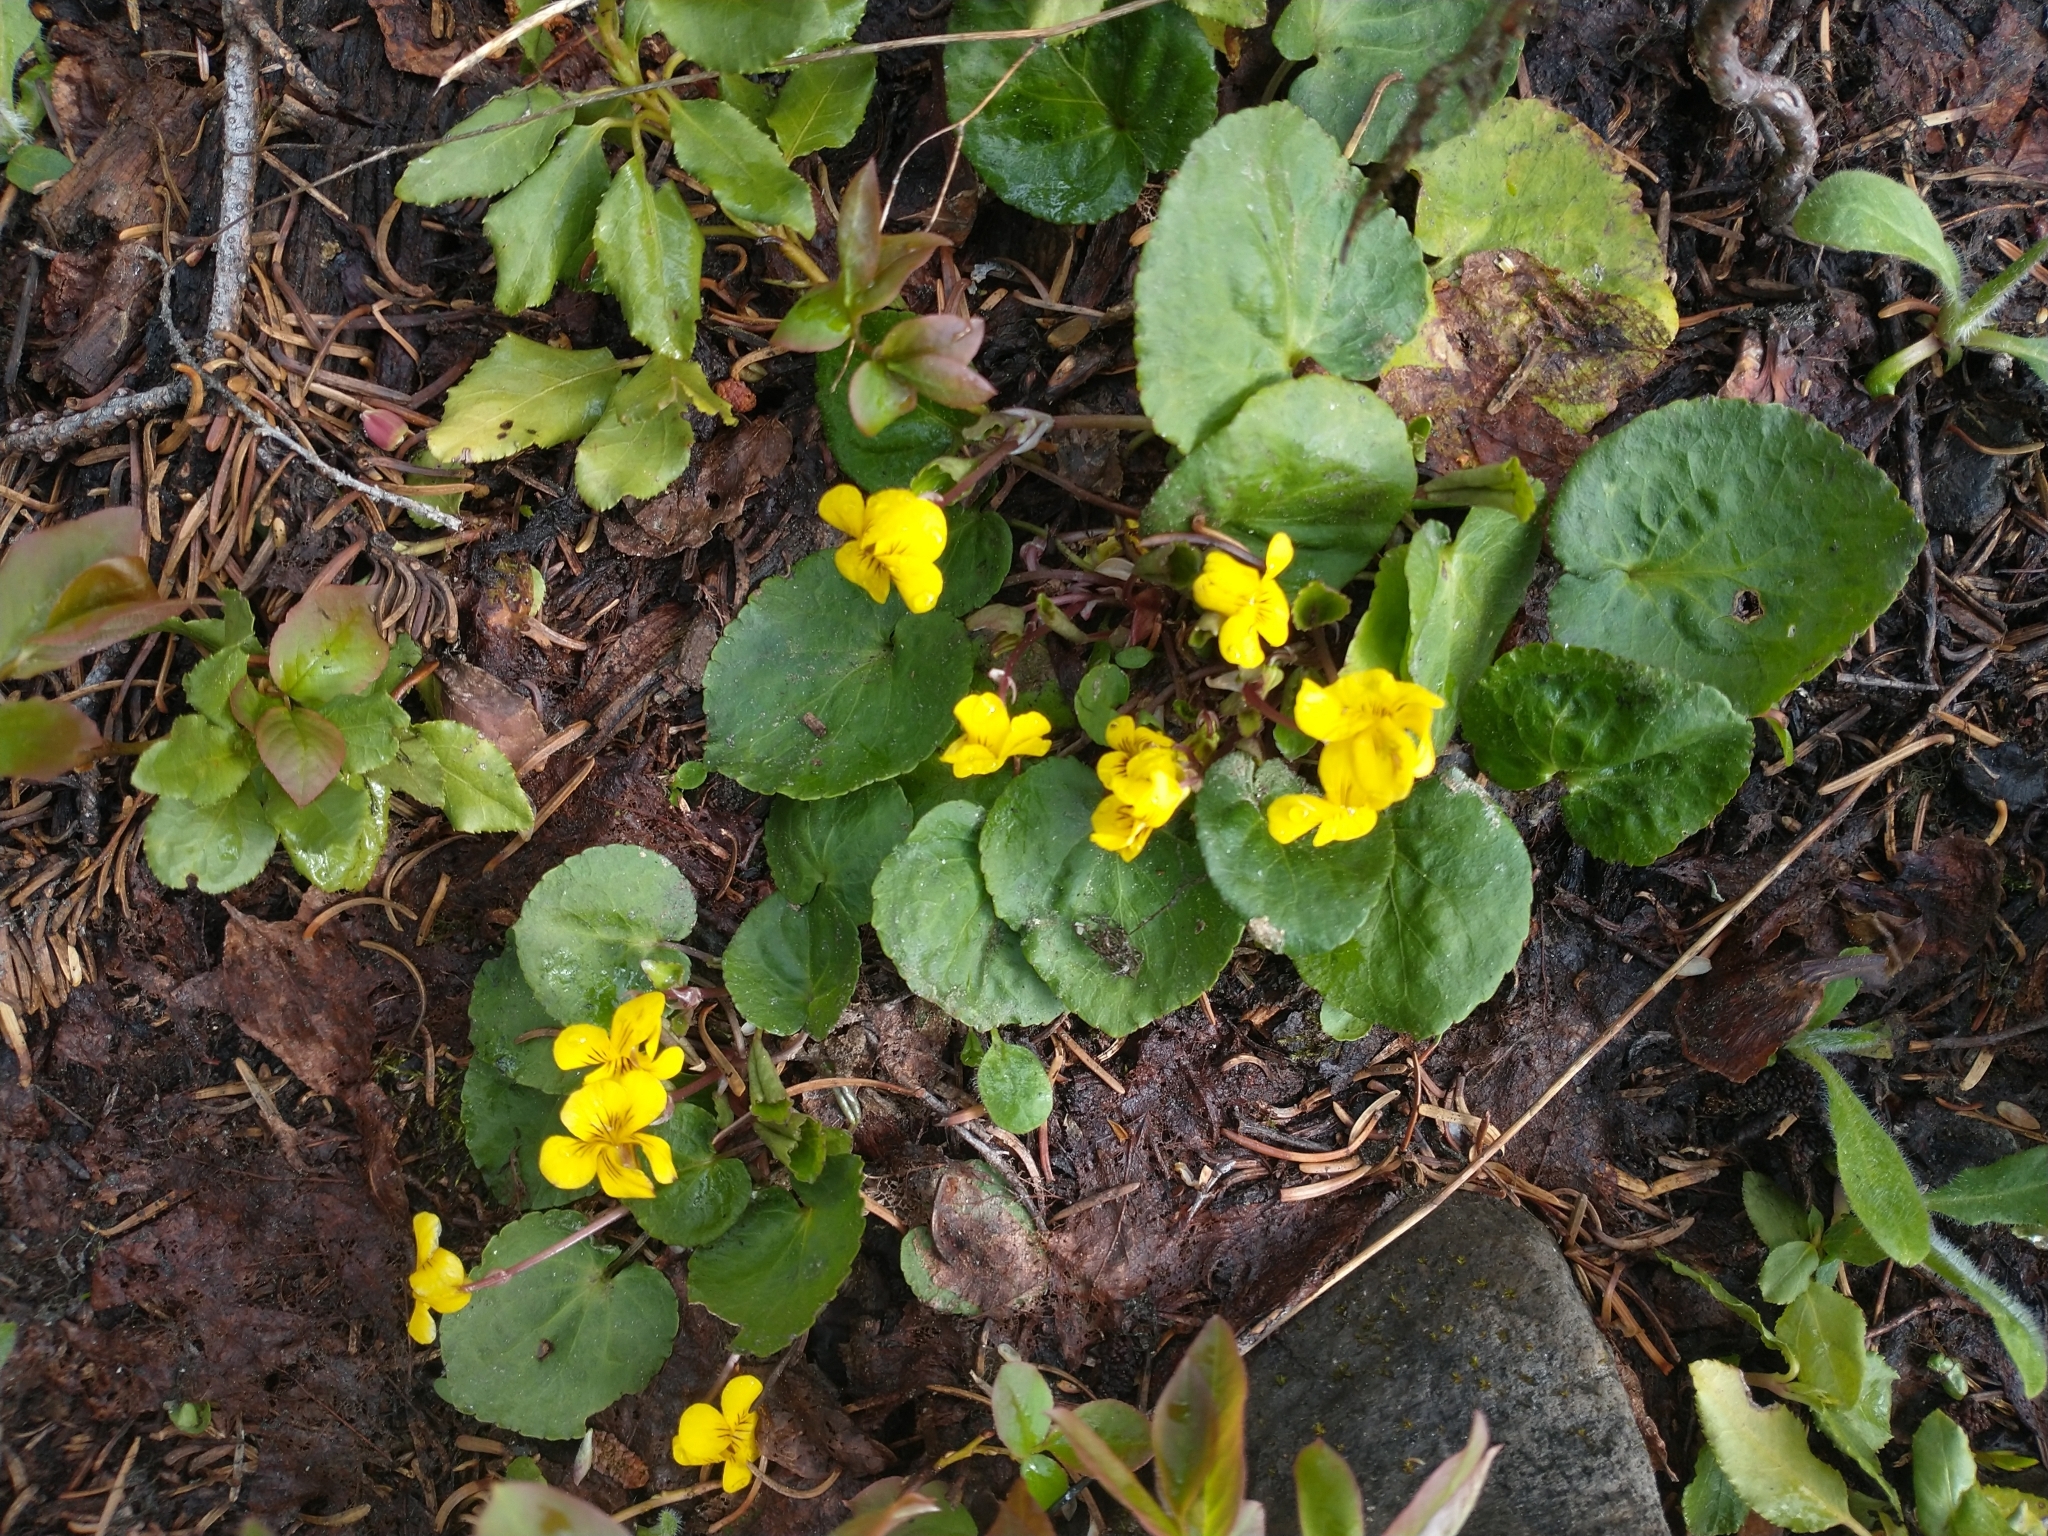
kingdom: Plantae
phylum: Tracheophyta
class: Magnoliopsida
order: Malpighiales
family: Violaceae
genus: Viola
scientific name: Viola orbiculata
